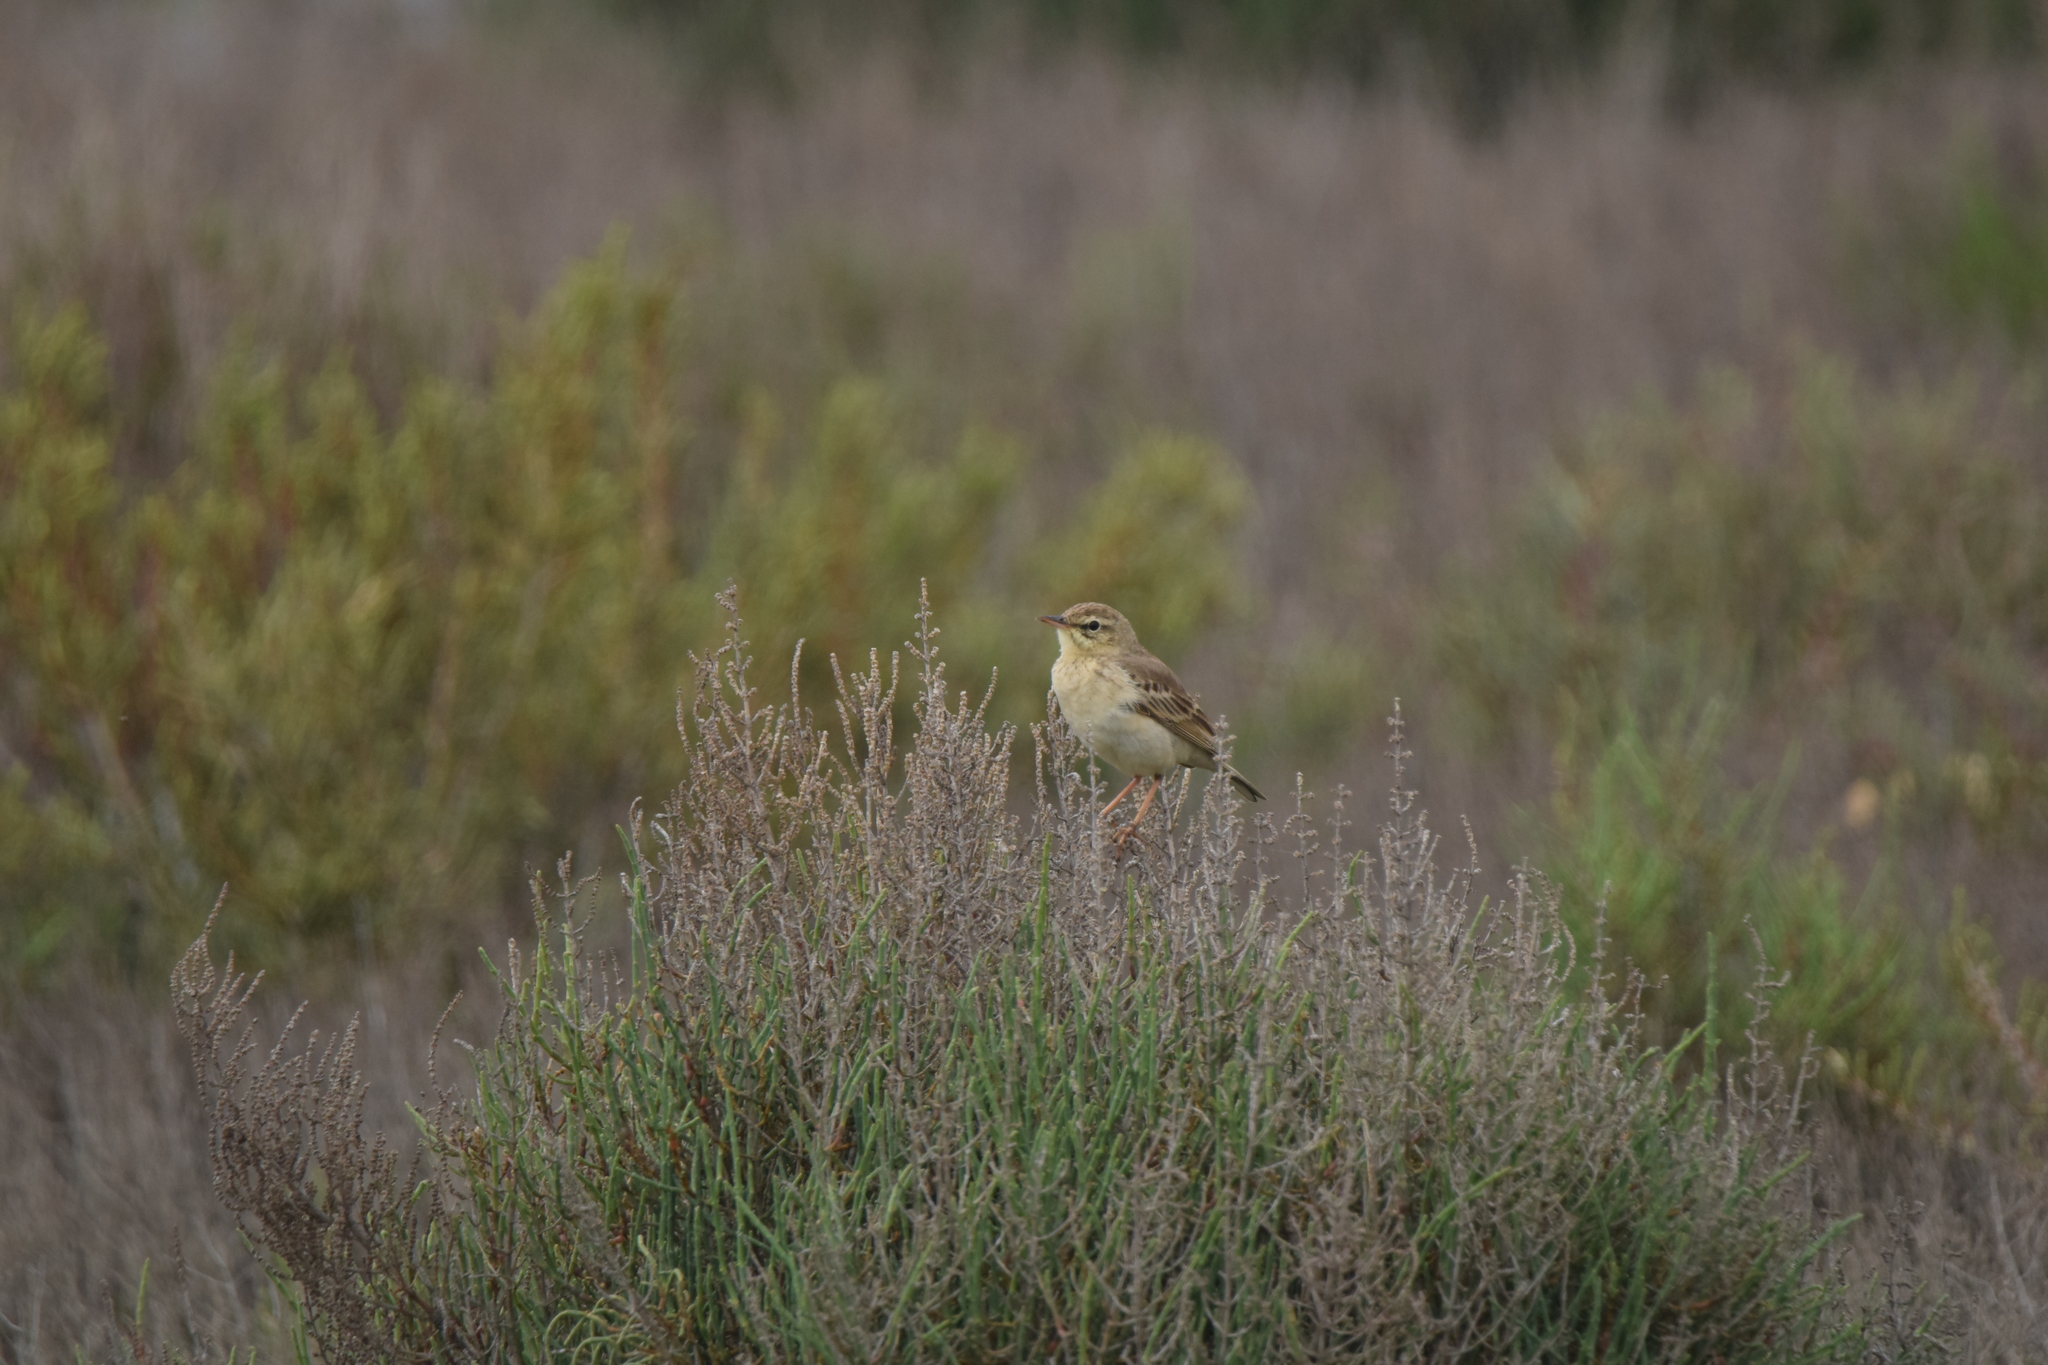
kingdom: Animalia
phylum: Chordata
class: Aves
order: Passeriformes
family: Motacillidae
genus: Anthus
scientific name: Anthus campestris
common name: Tawny pipit
